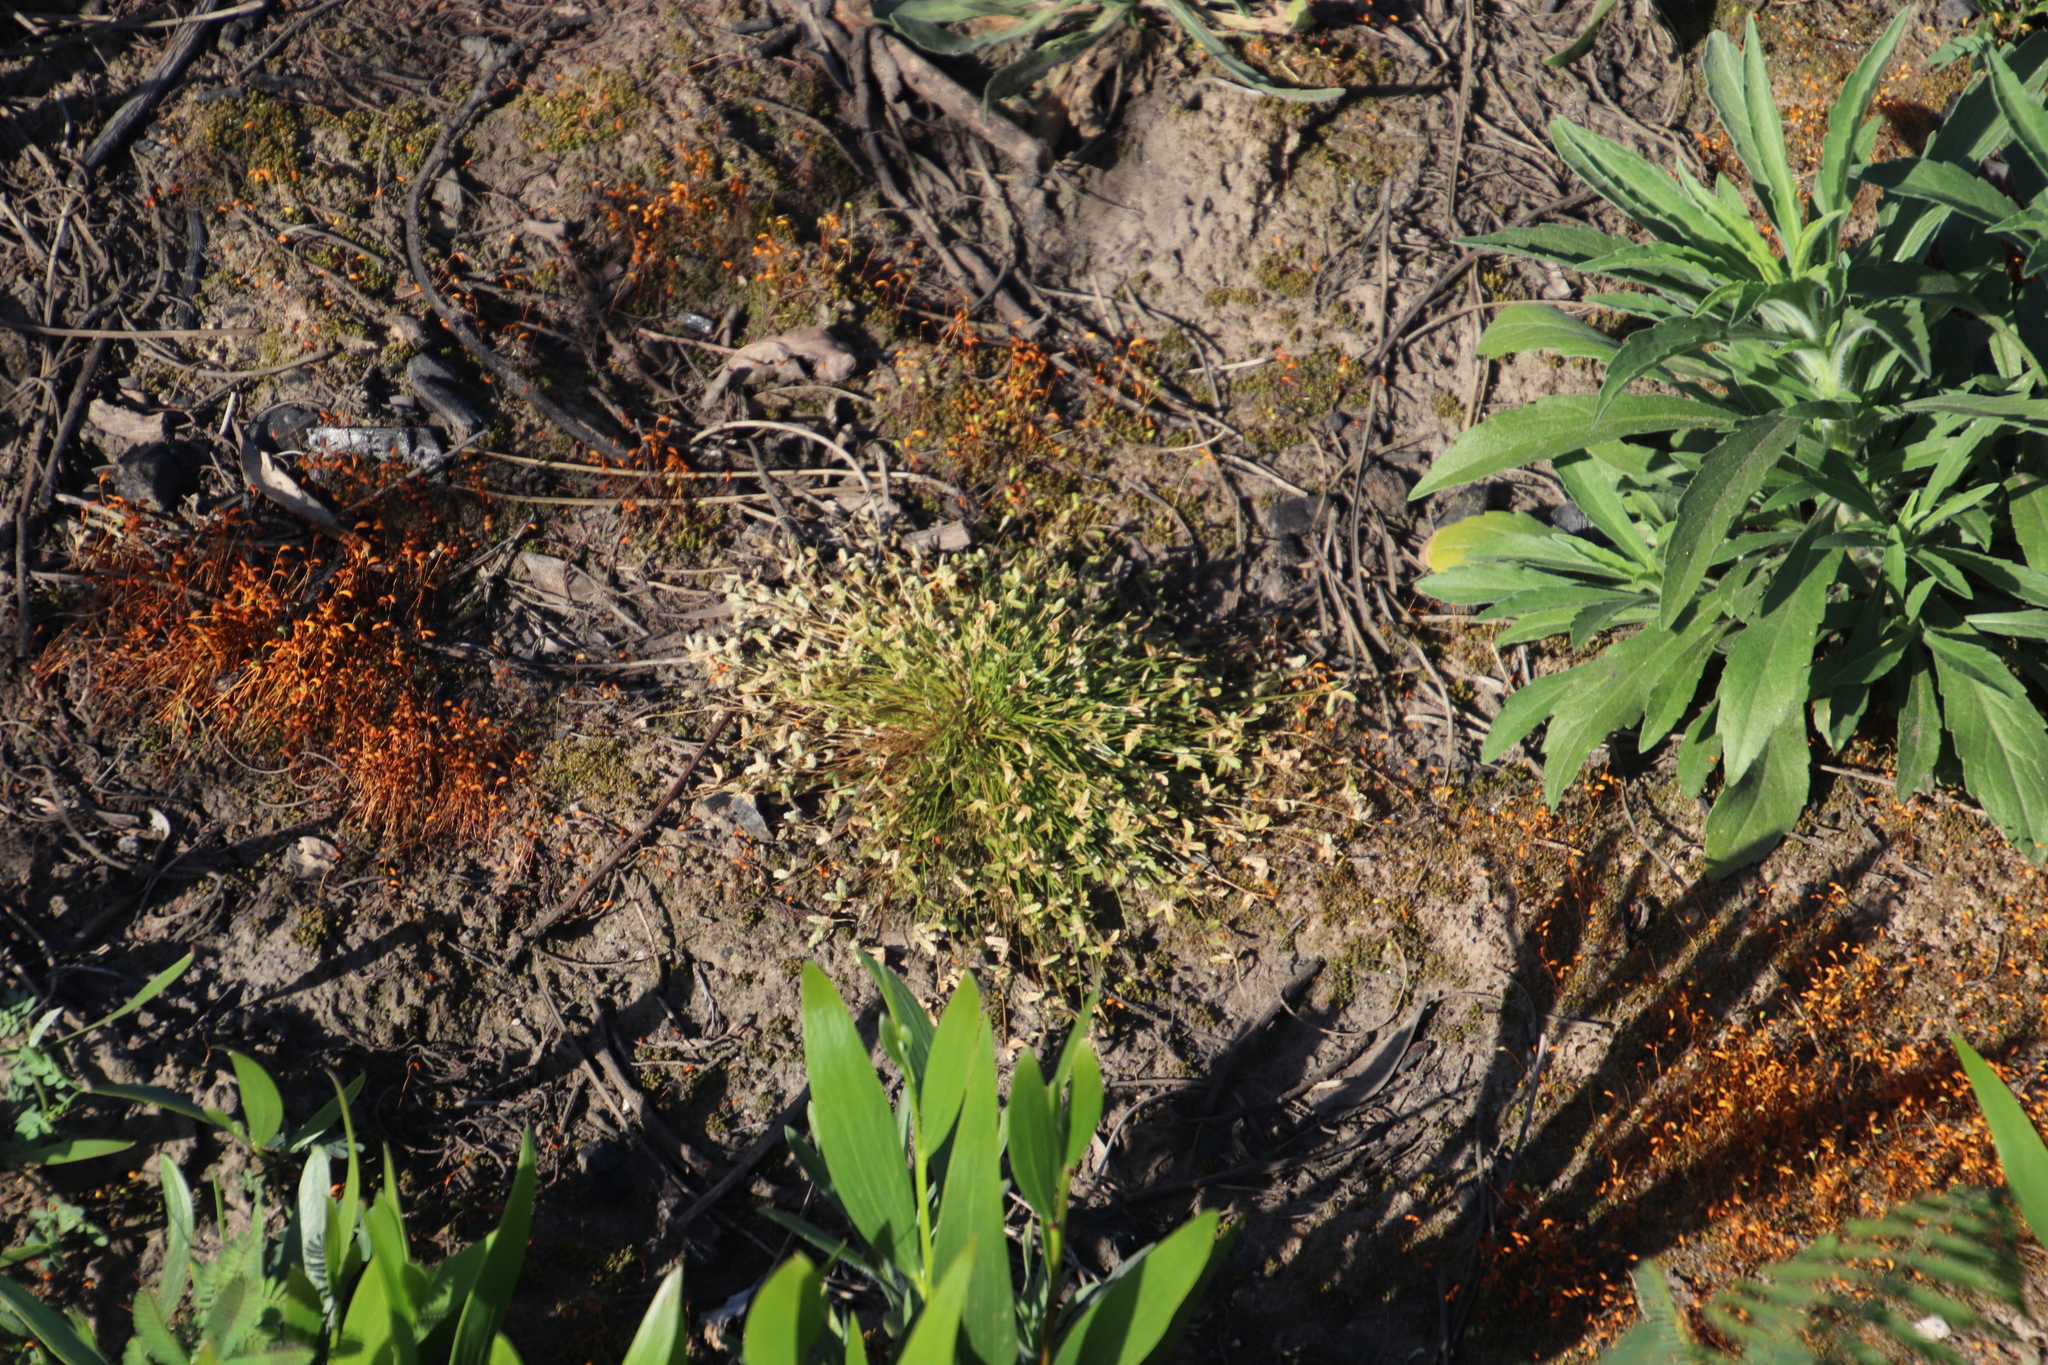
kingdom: Plantae
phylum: Tracheophyta
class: Liliopsida
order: Poales
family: Cyperaceae
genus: Isolepis
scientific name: Isolepis levynsiana
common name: Sedge
